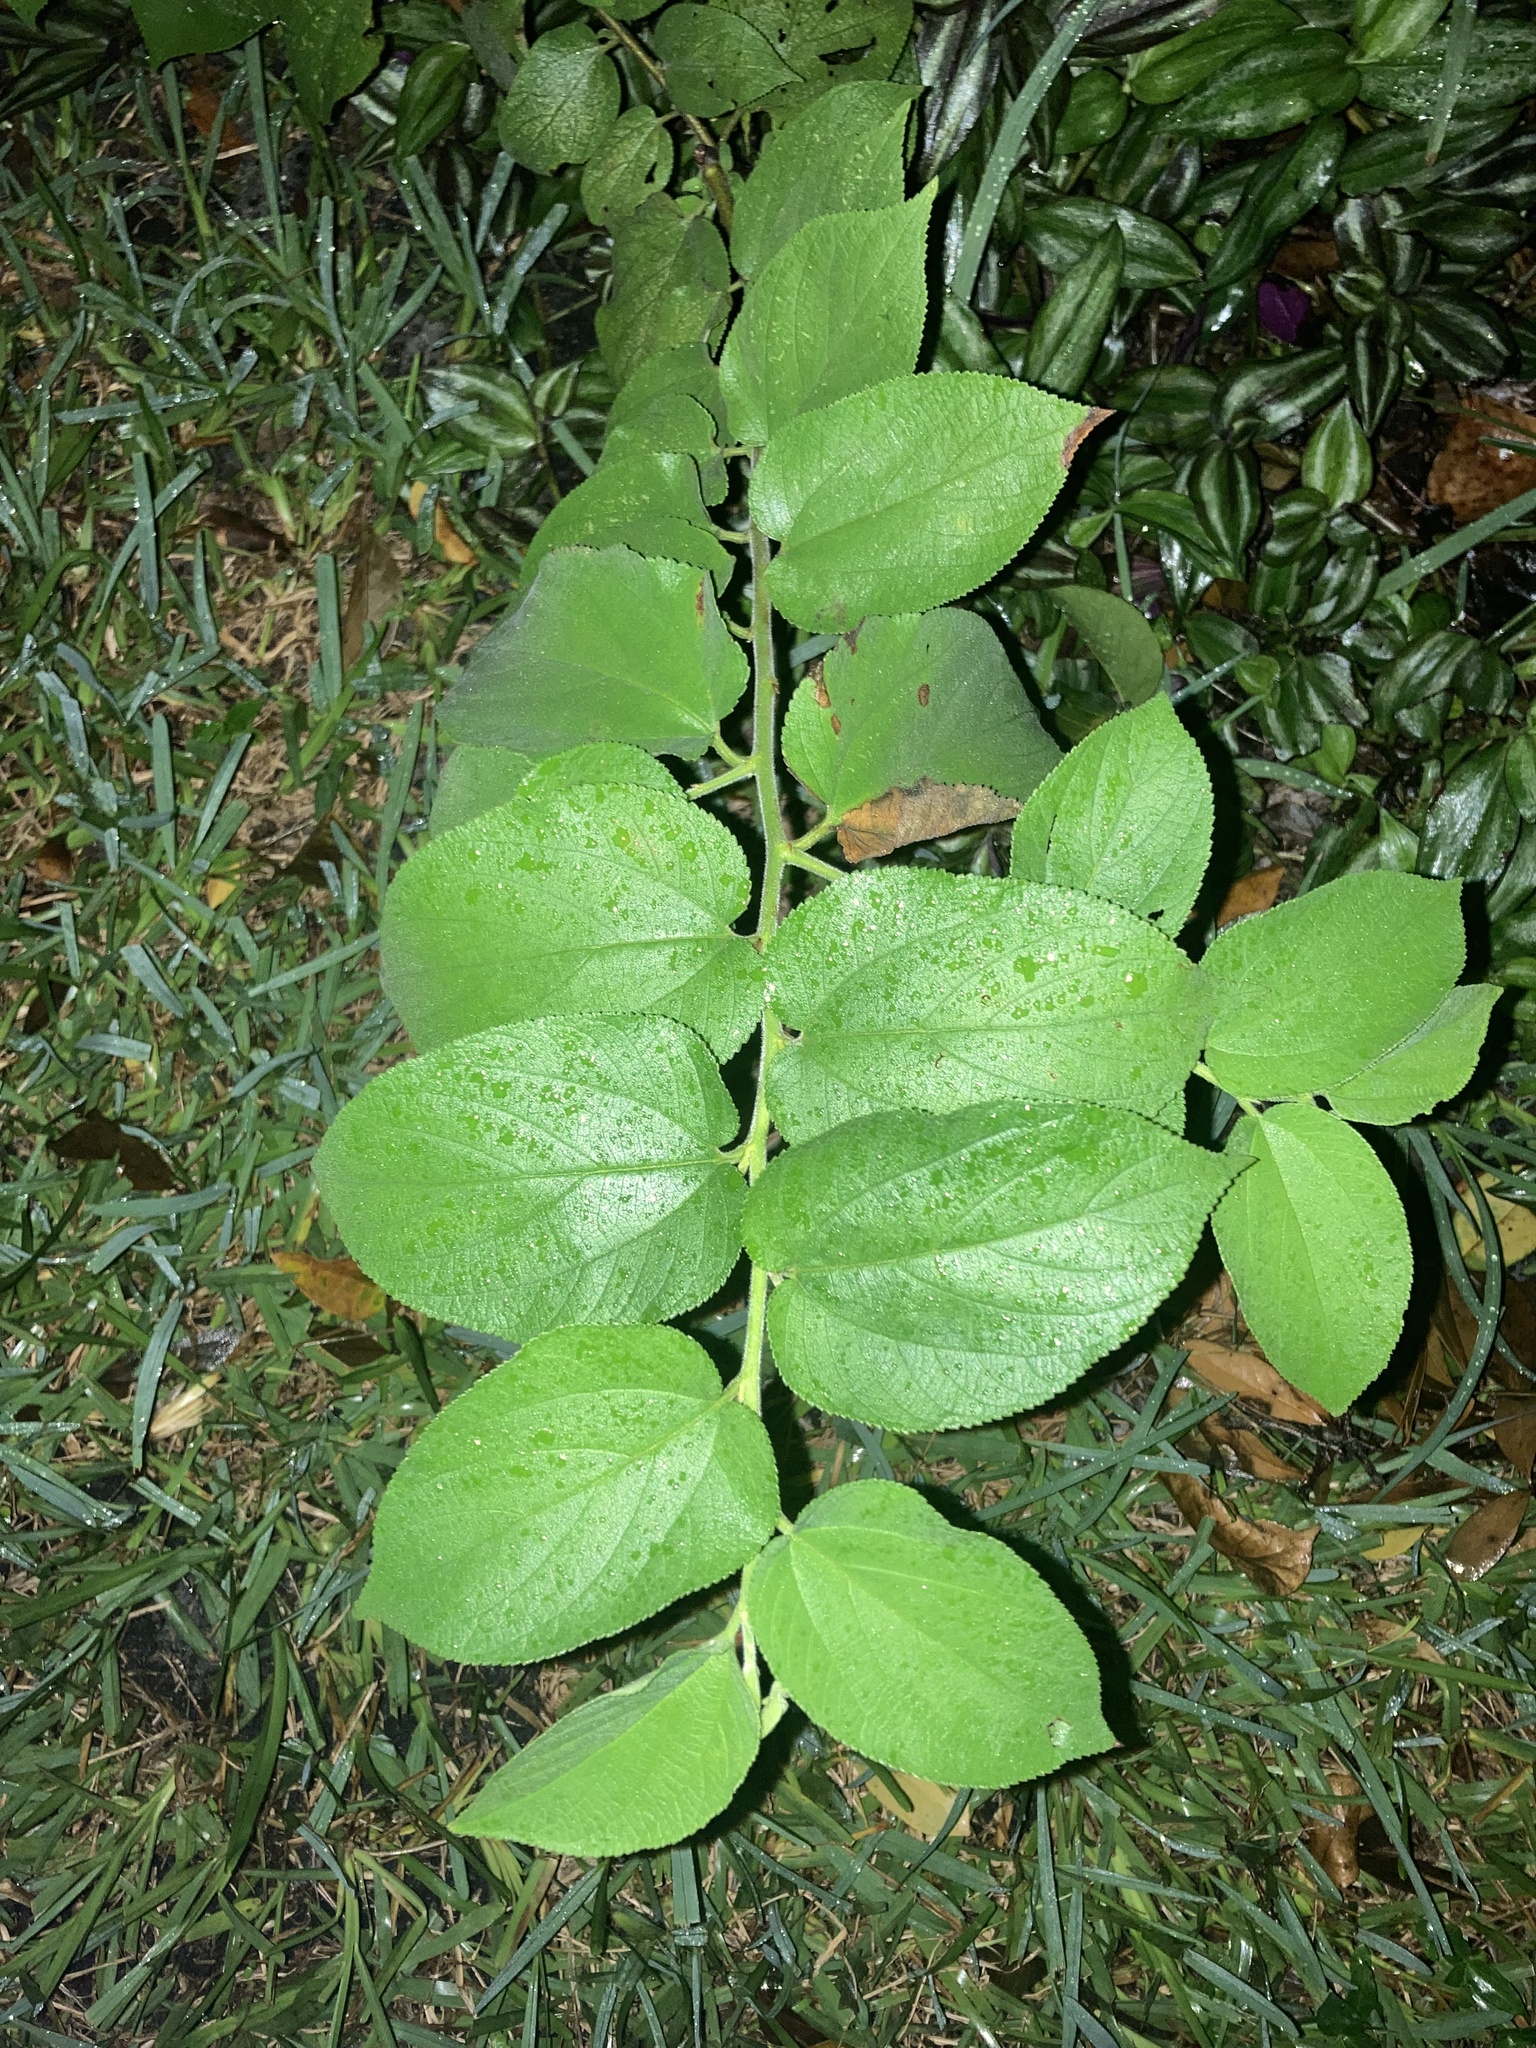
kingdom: Plantae
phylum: Tracheophyta
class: Magnoliopsida
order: Rosales
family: Cannabaceae
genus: Trema
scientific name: Trema micranthum
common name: Jamaican nettletree
